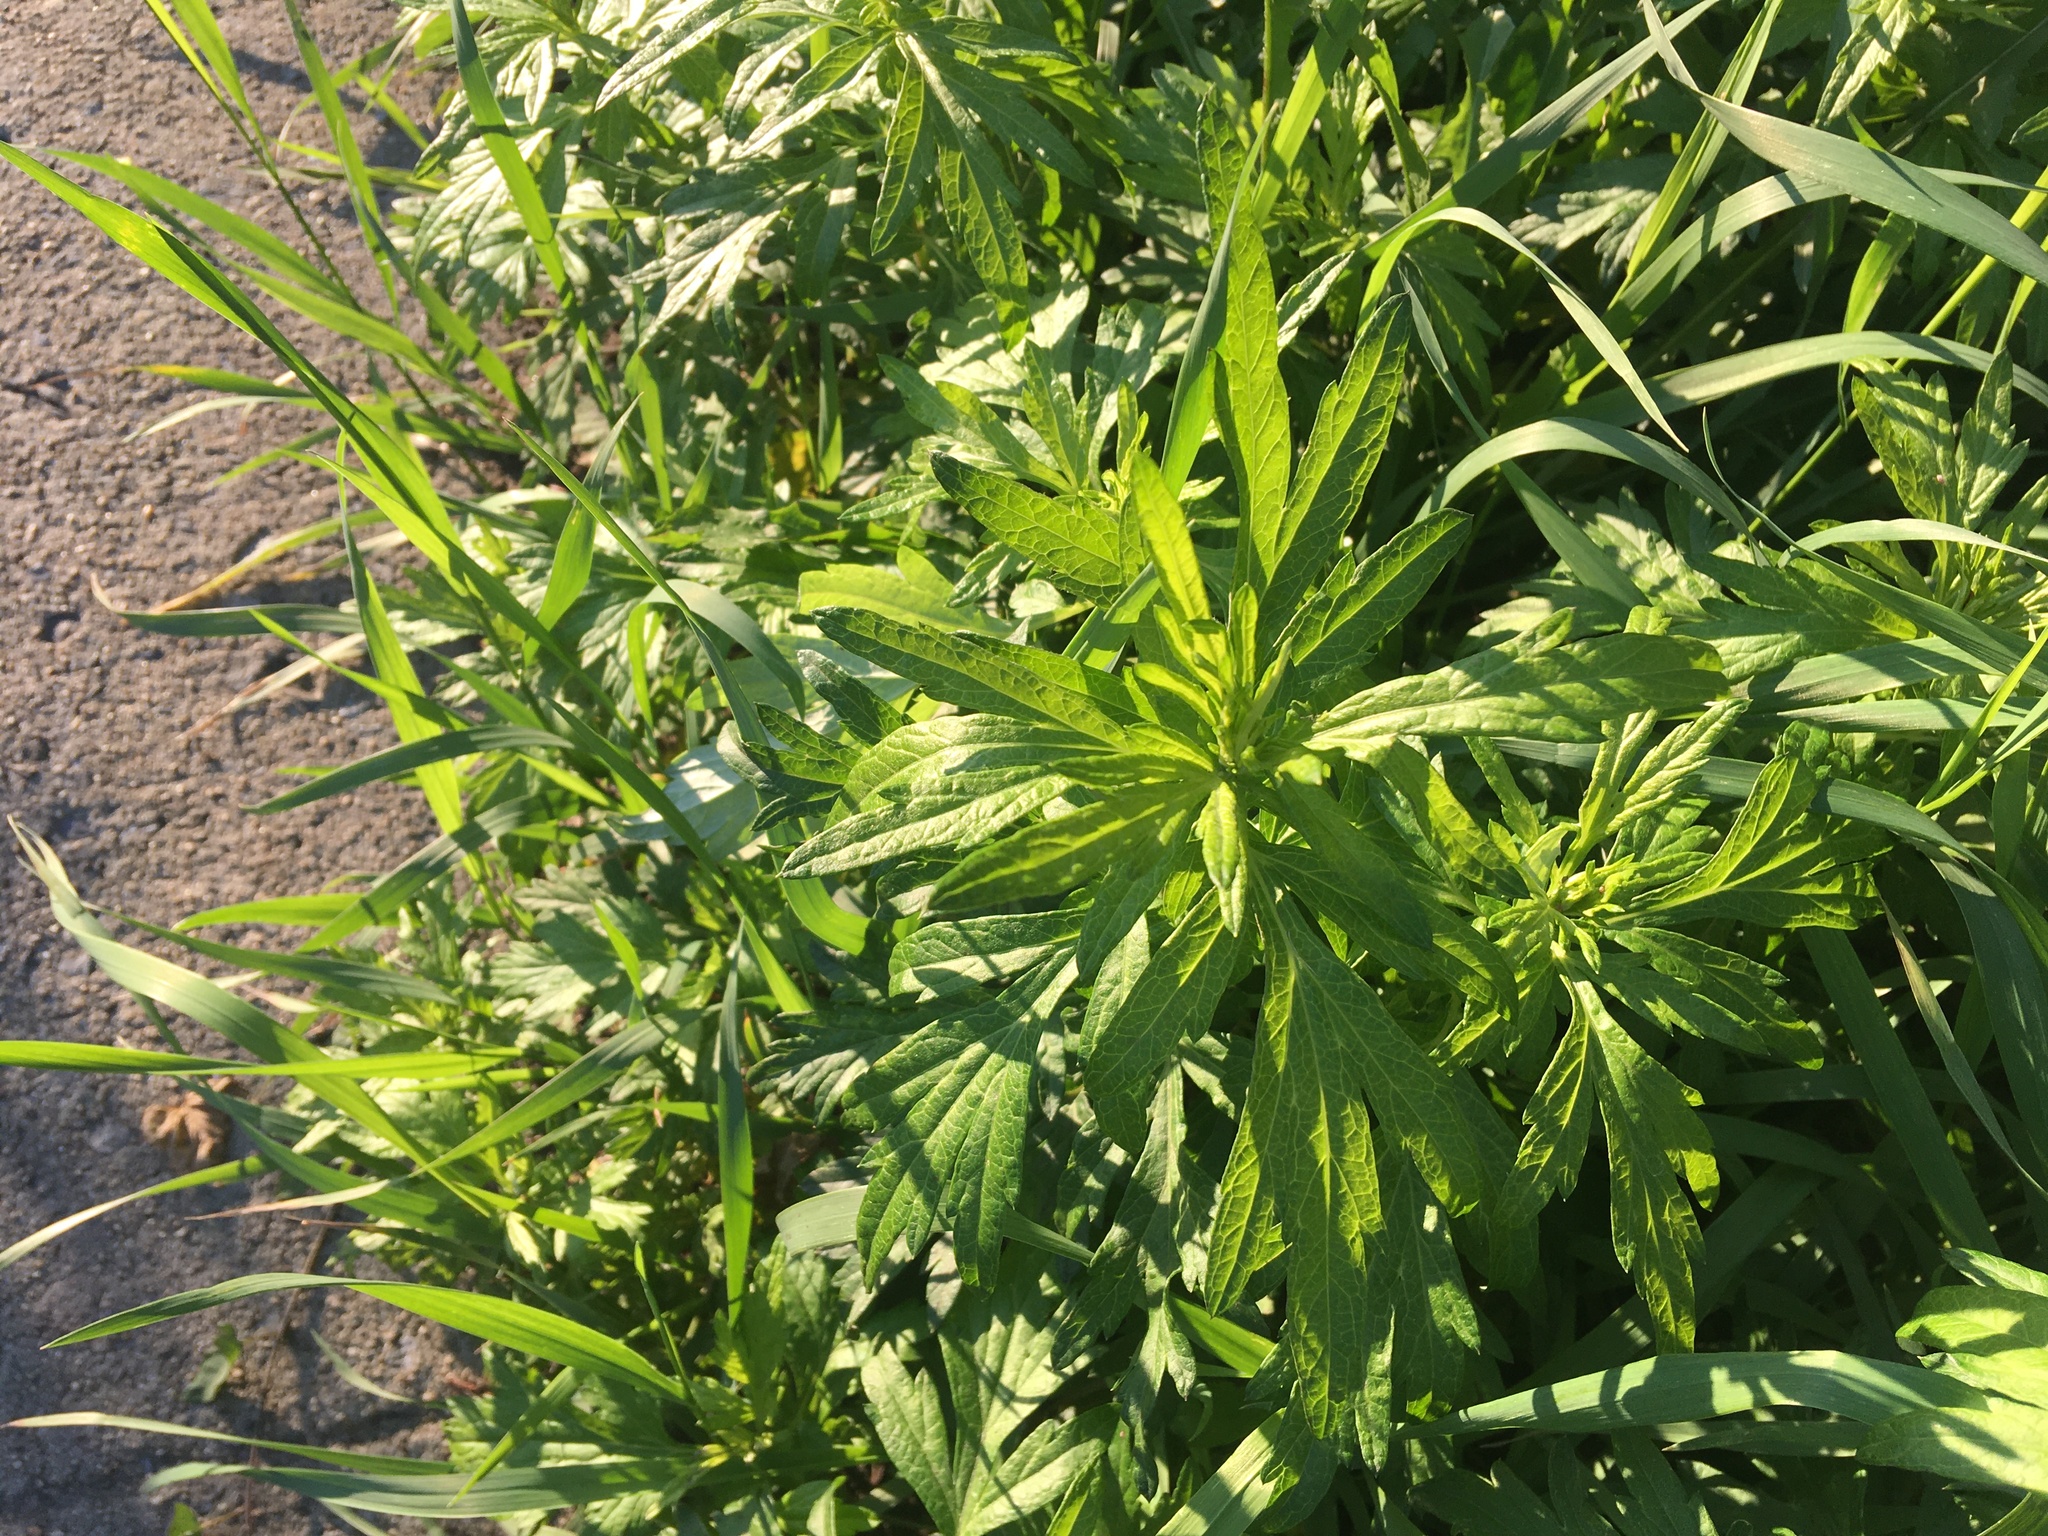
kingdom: Plantae
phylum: Tracheophyta
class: Magnoliopsida
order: Asterales
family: Asteraceae
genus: Artemisia
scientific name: Artemisia vulgaris
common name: Mugwort
